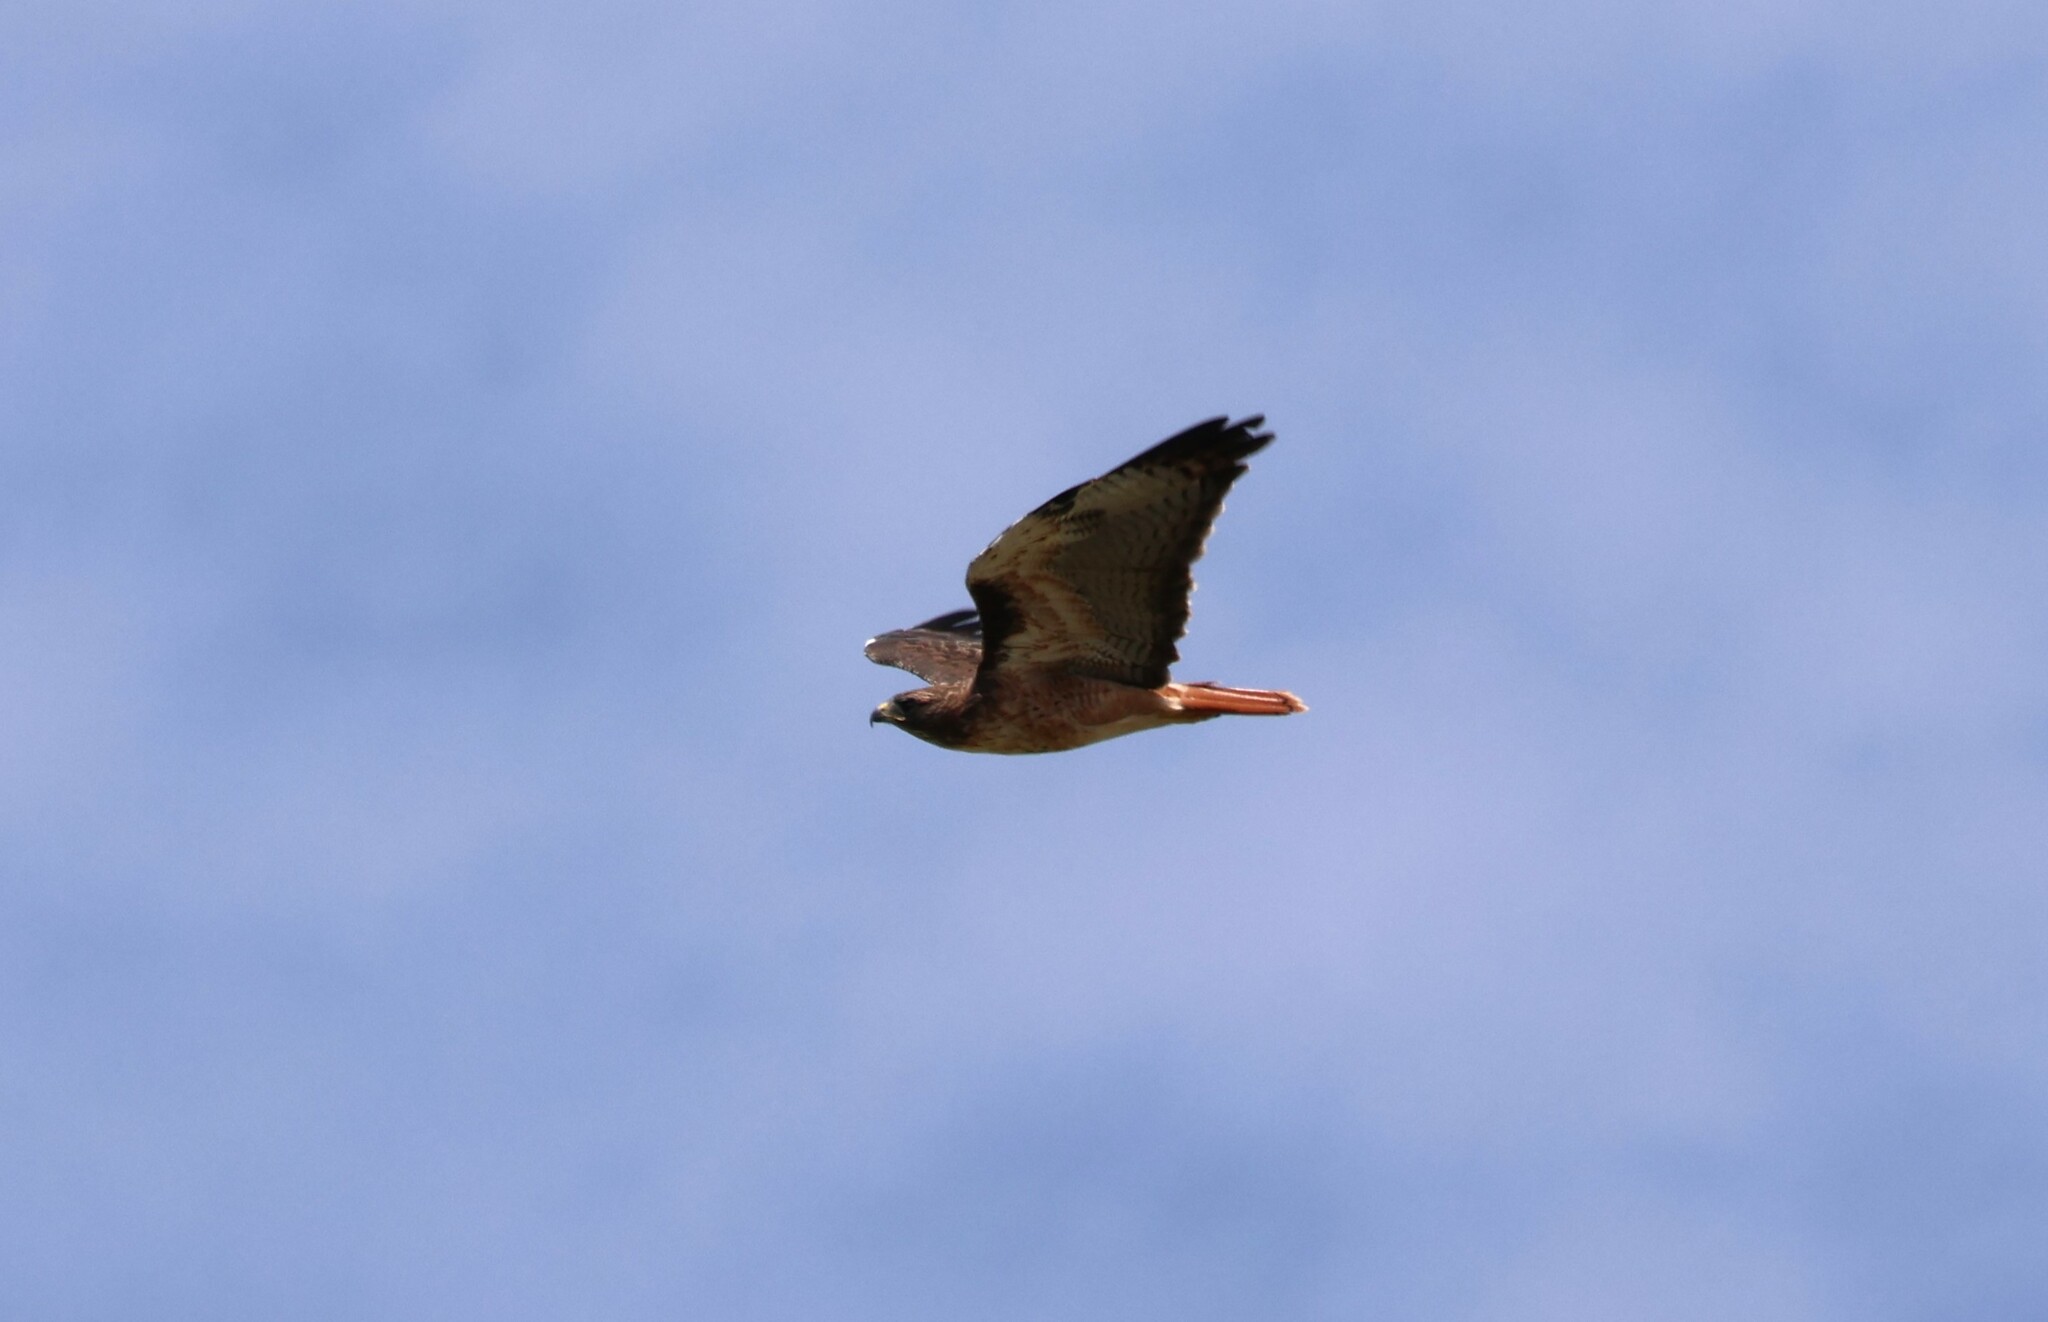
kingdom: Animalia
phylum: Chordata
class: Aves
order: Accipitriformes
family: Accipitridae
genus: Buteo
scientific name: Buteo jamaicensis
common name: Red-tailed hawk
